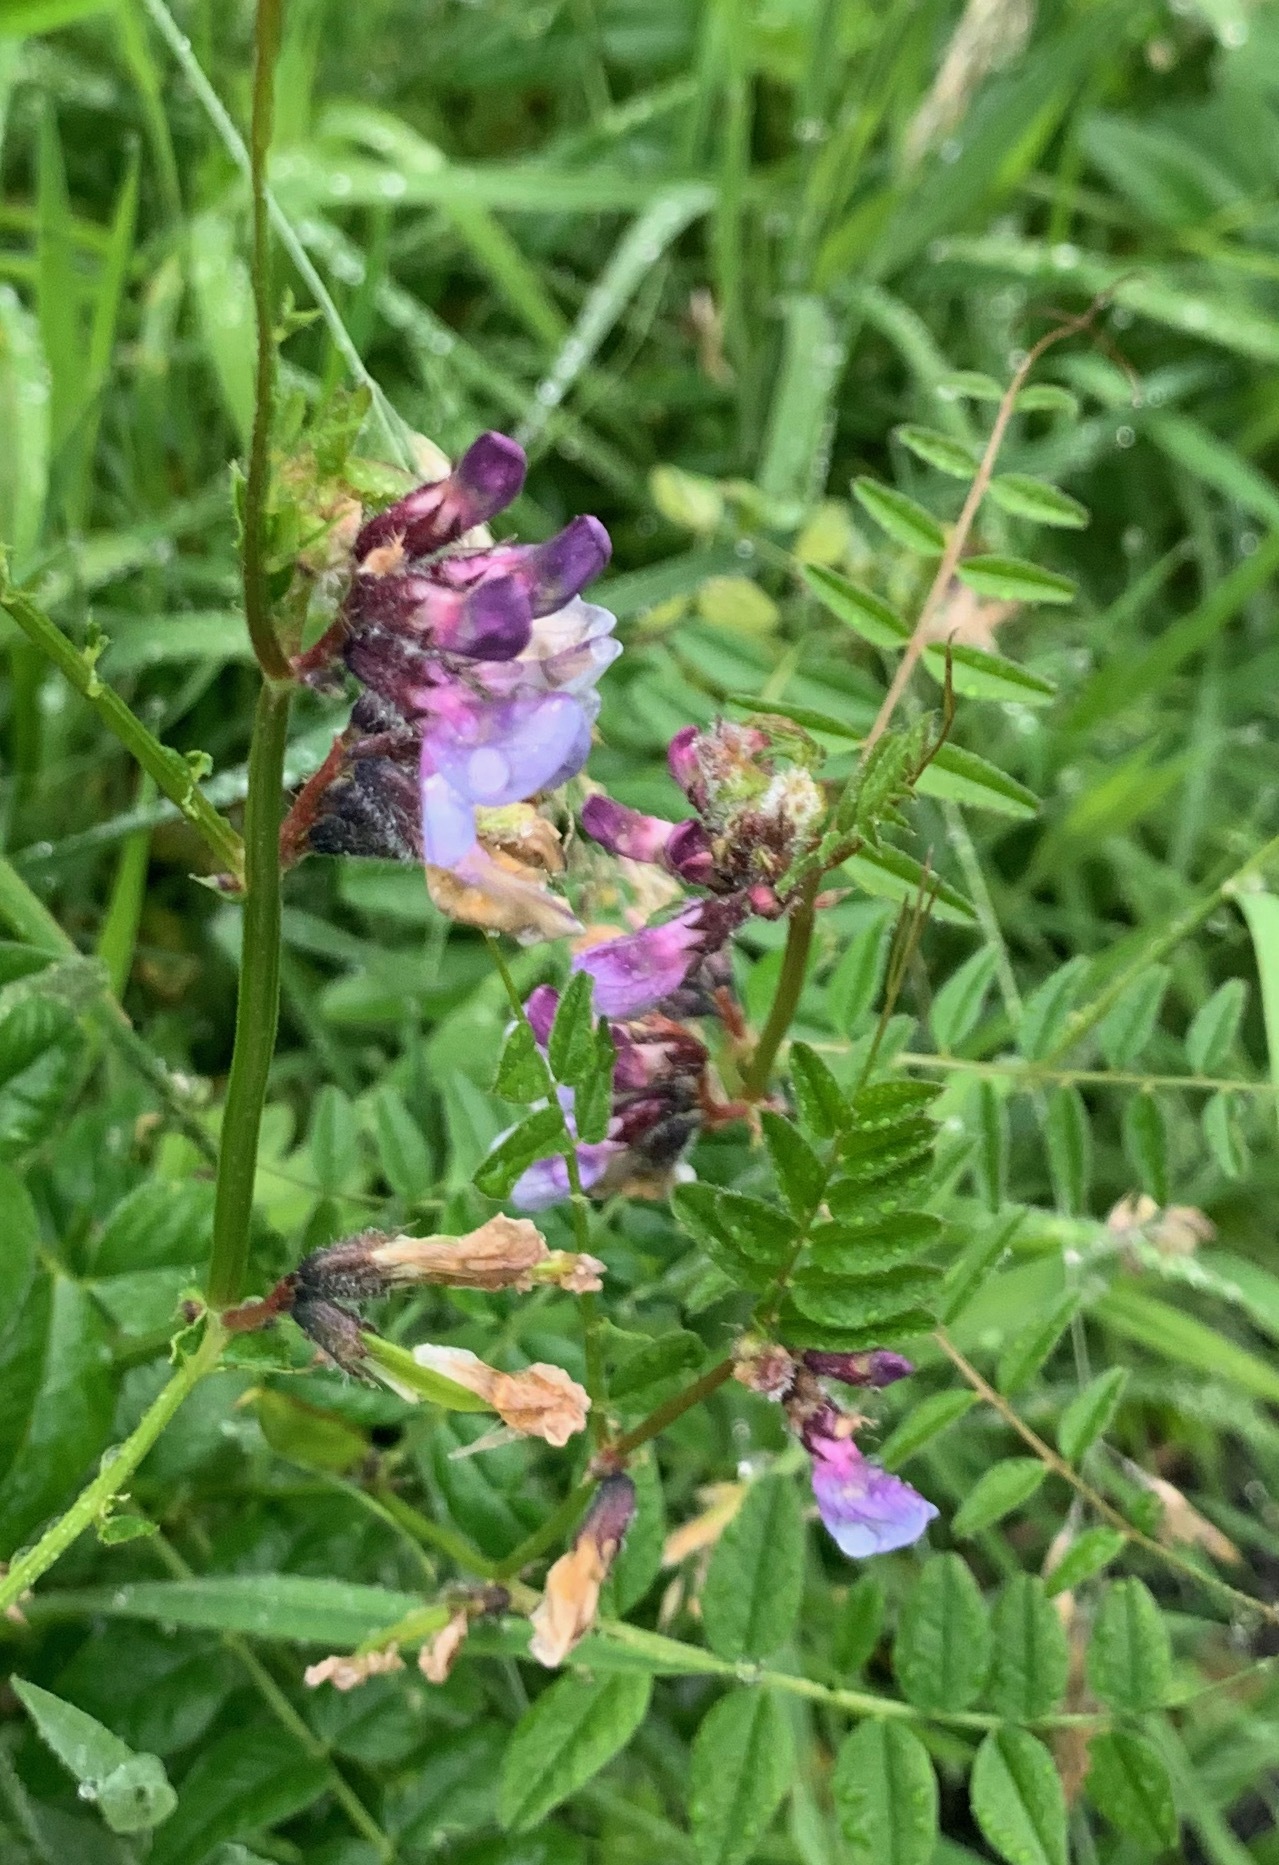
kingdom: Plantae
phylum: Tracheophyta
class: Magnoliopsida
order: Fabales
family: Fabaceae
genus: Vicia
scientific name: Vicia sepium
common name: Bush vetch
